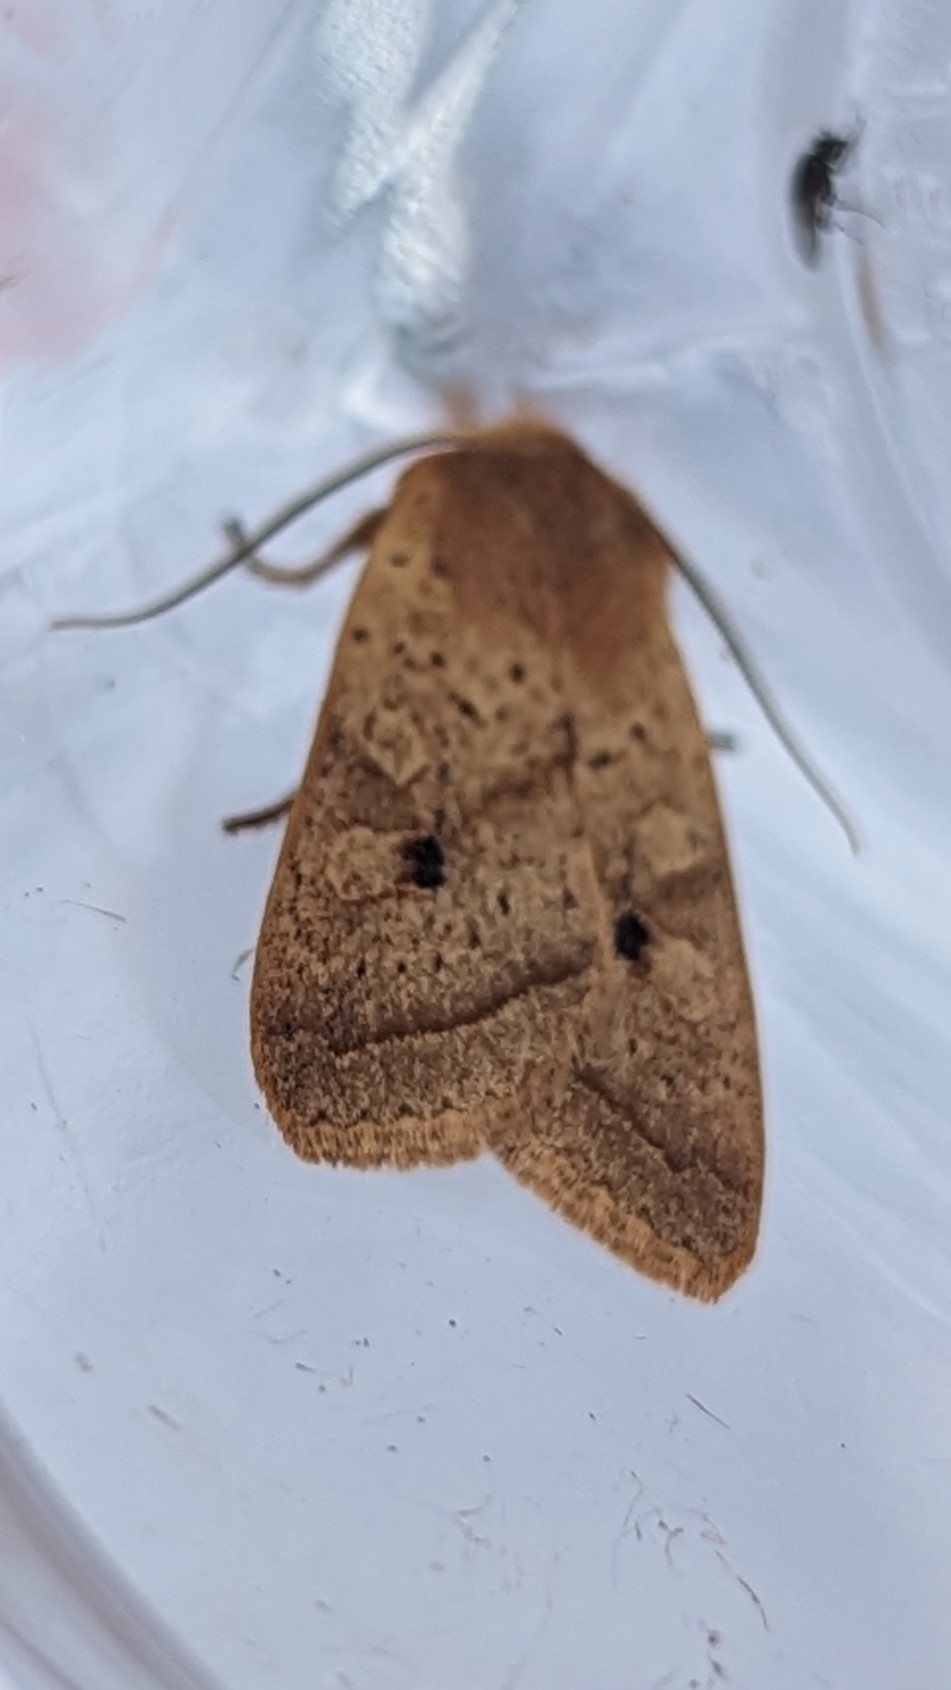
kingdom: Animalia
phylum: Arthropoda
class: Insecta
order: Lepidoptera
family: Noctuidae
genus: Agrochola
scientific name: Agrochola macilenta
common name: Yellow-line quaker
